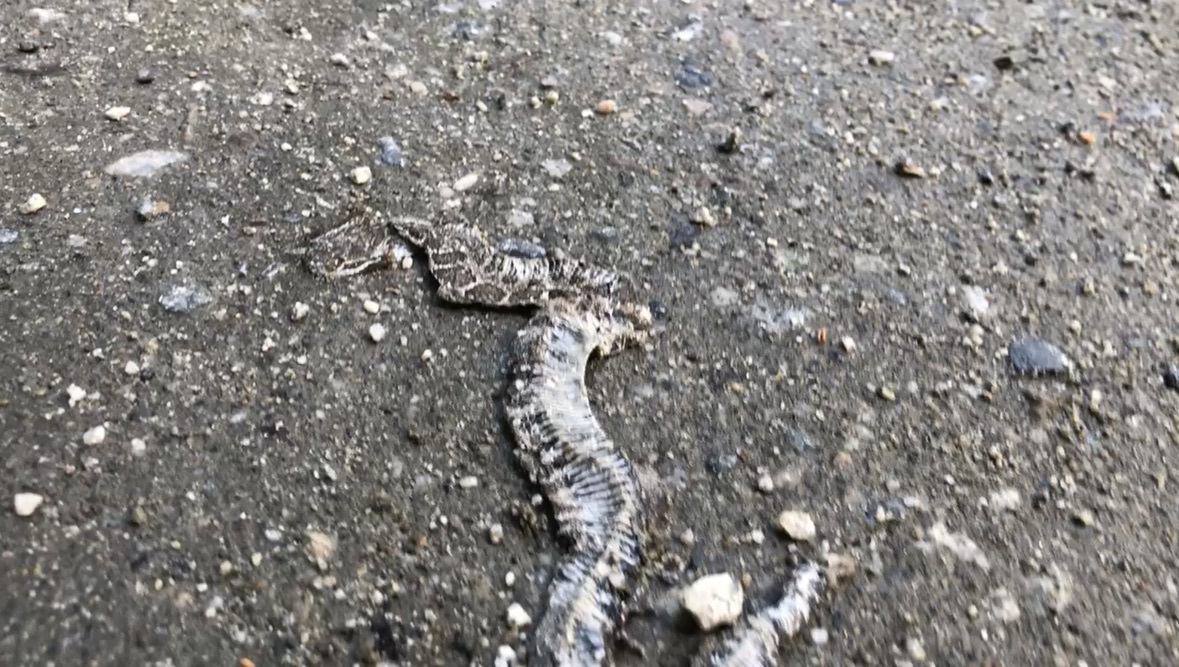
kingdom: Animalia
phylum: Chordata
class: Squamata
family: Viperidae
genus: Crotalus
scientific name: Crotalus oreganus
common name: Abyssus
